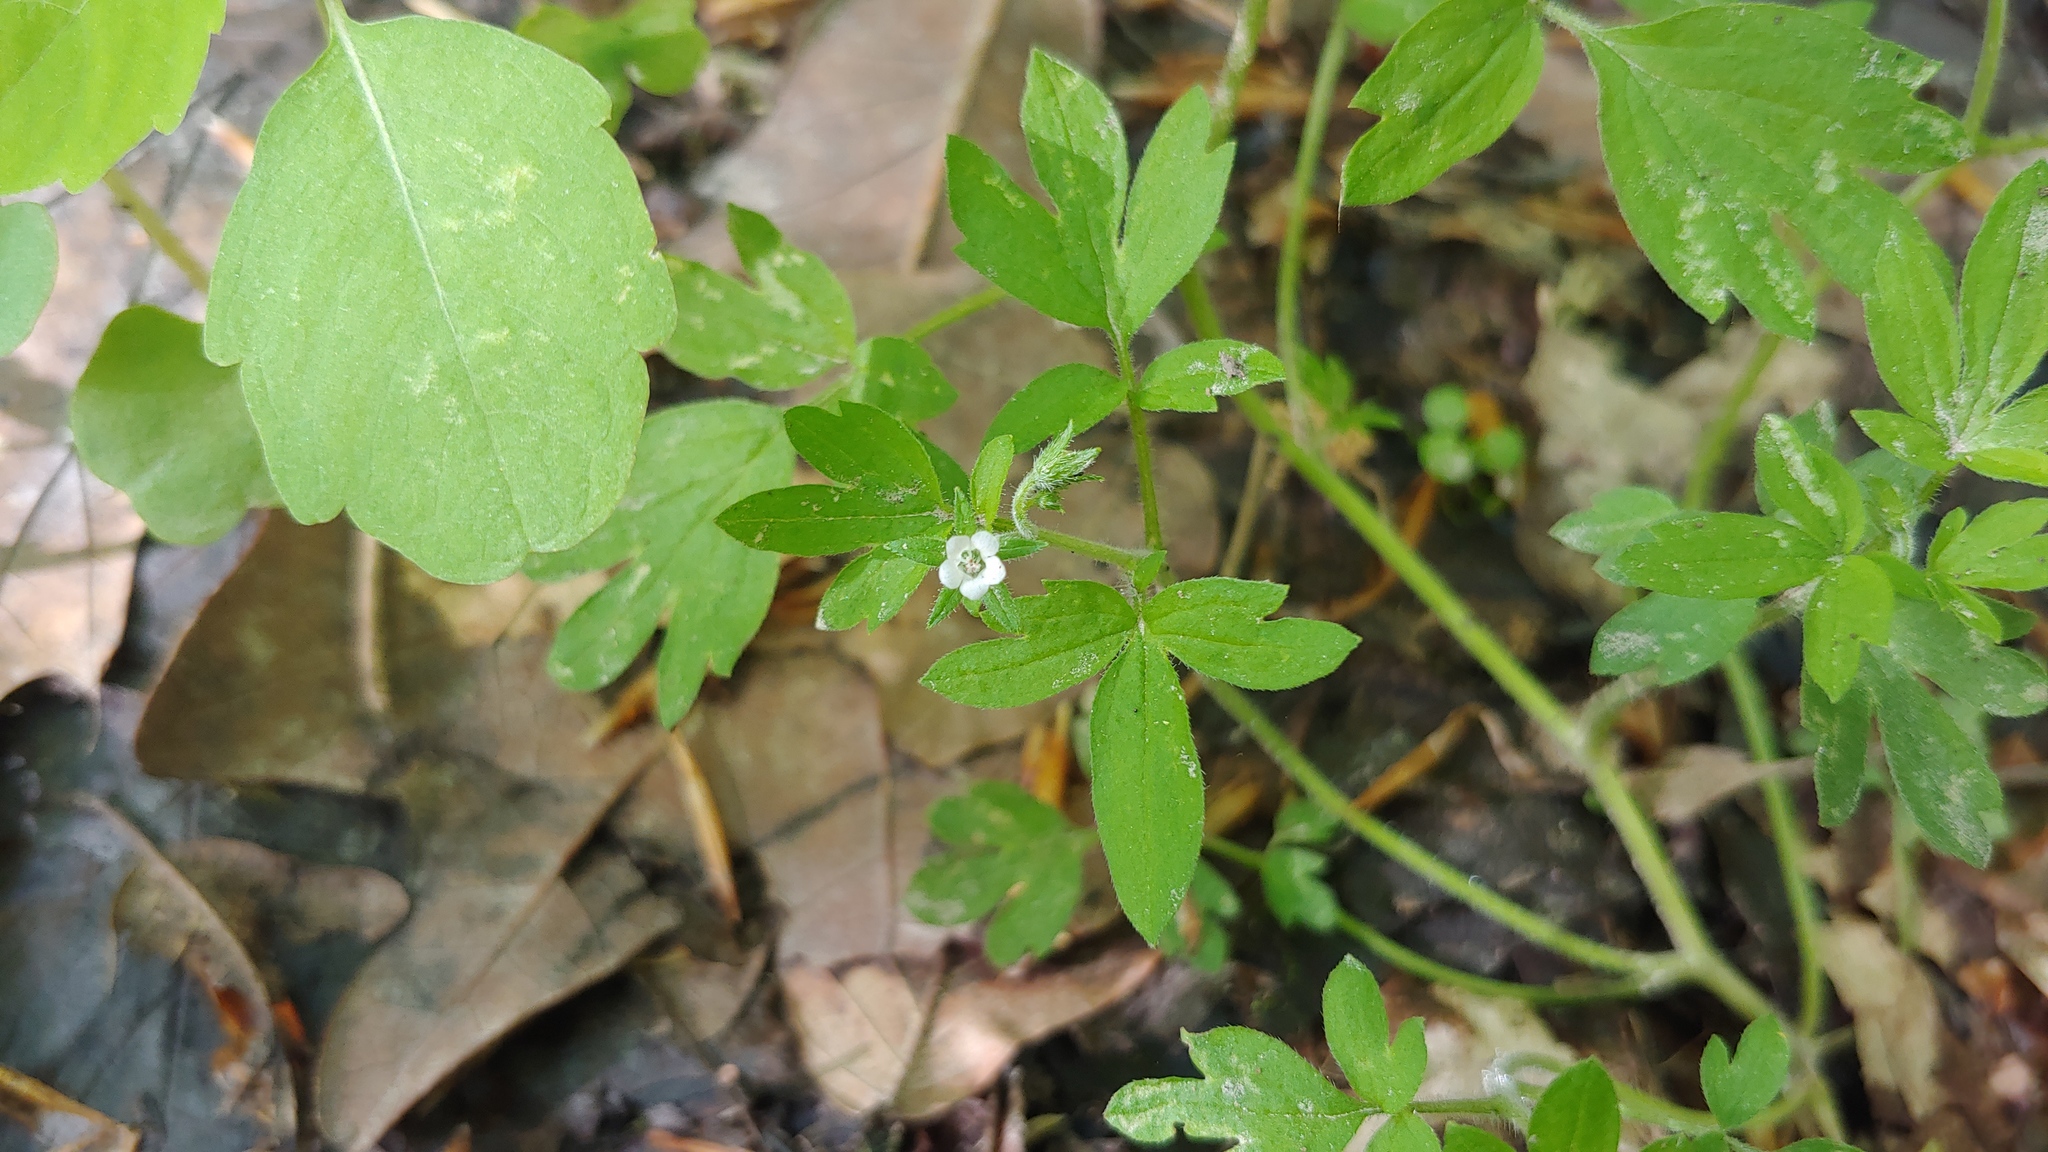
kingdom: Plantae
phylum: Tracheophyta
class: Magnoliopsida
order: Boraginales
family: Hydrophyllaceae
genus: Phacelia
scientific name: Phacelia covillei
